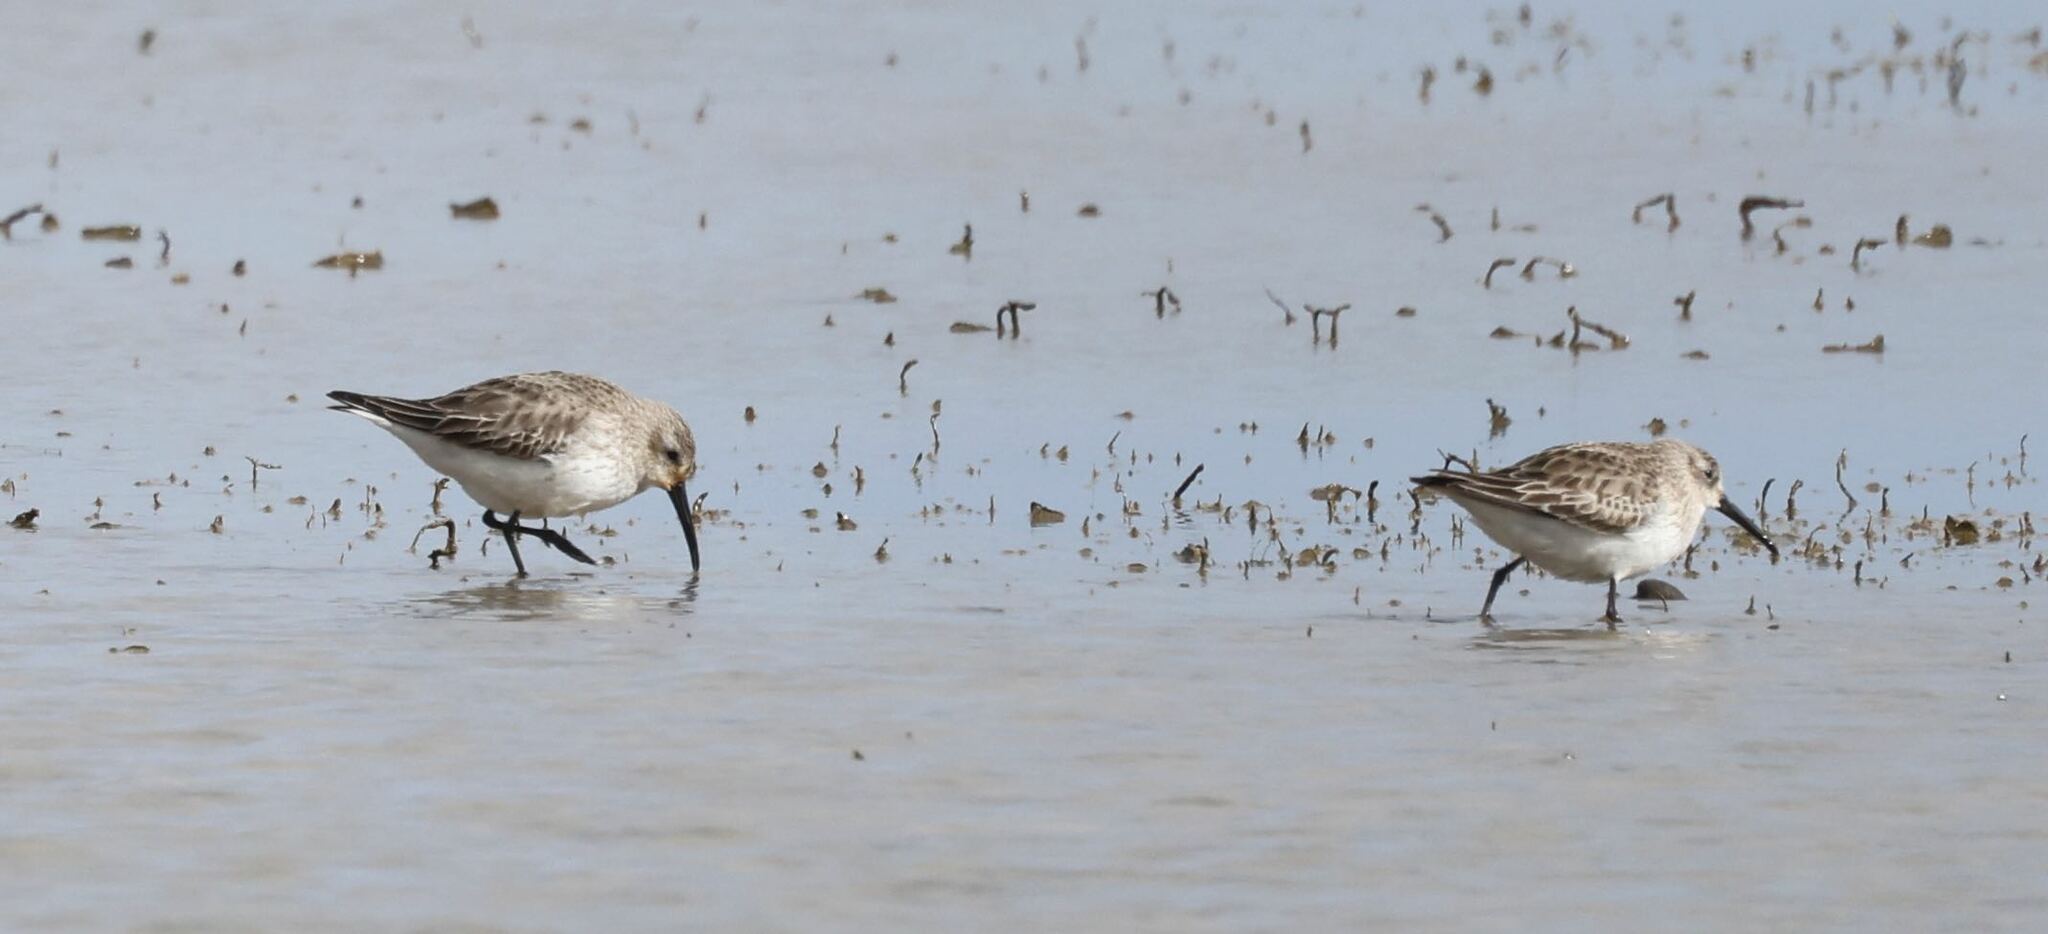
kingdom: Animalia
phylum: Chordata
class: Aves
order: Charadriiformes
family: Scolopacidae
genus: Calidris
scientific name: Calidris alpina
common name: Dunlin
